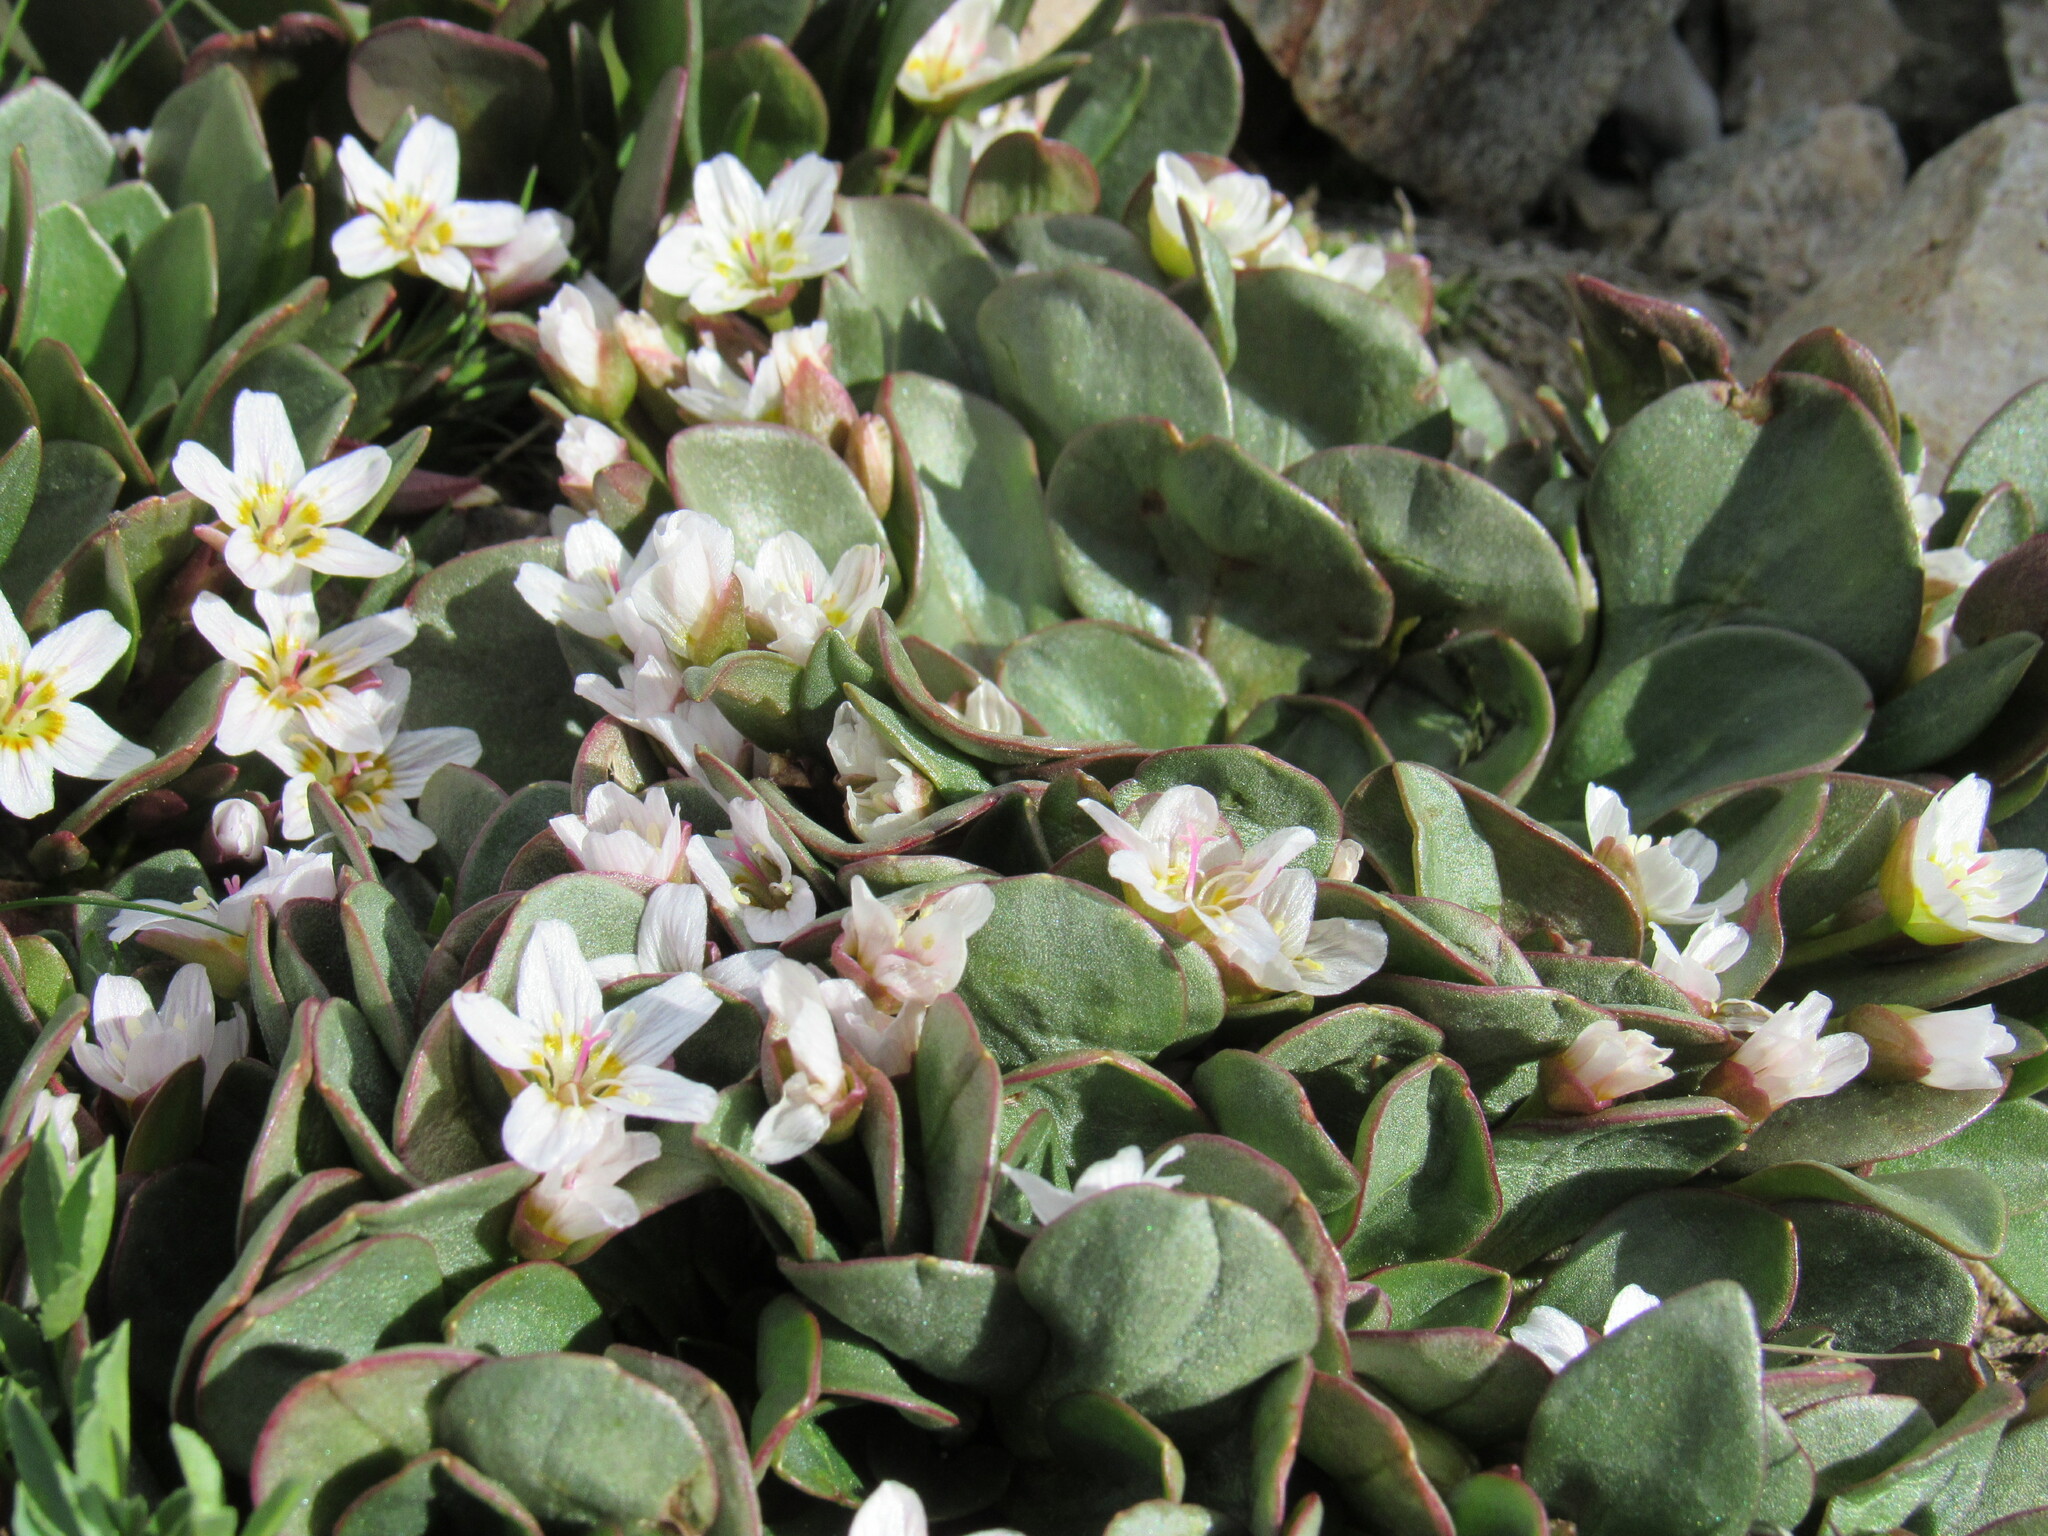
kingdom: Plantae
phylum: Tracheophyta
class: Magnoliopsida
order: Caryophyllales
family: Montiaceae
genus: Claytonia
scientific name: Claytonia megarhiza
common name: Alpine spring beauty
